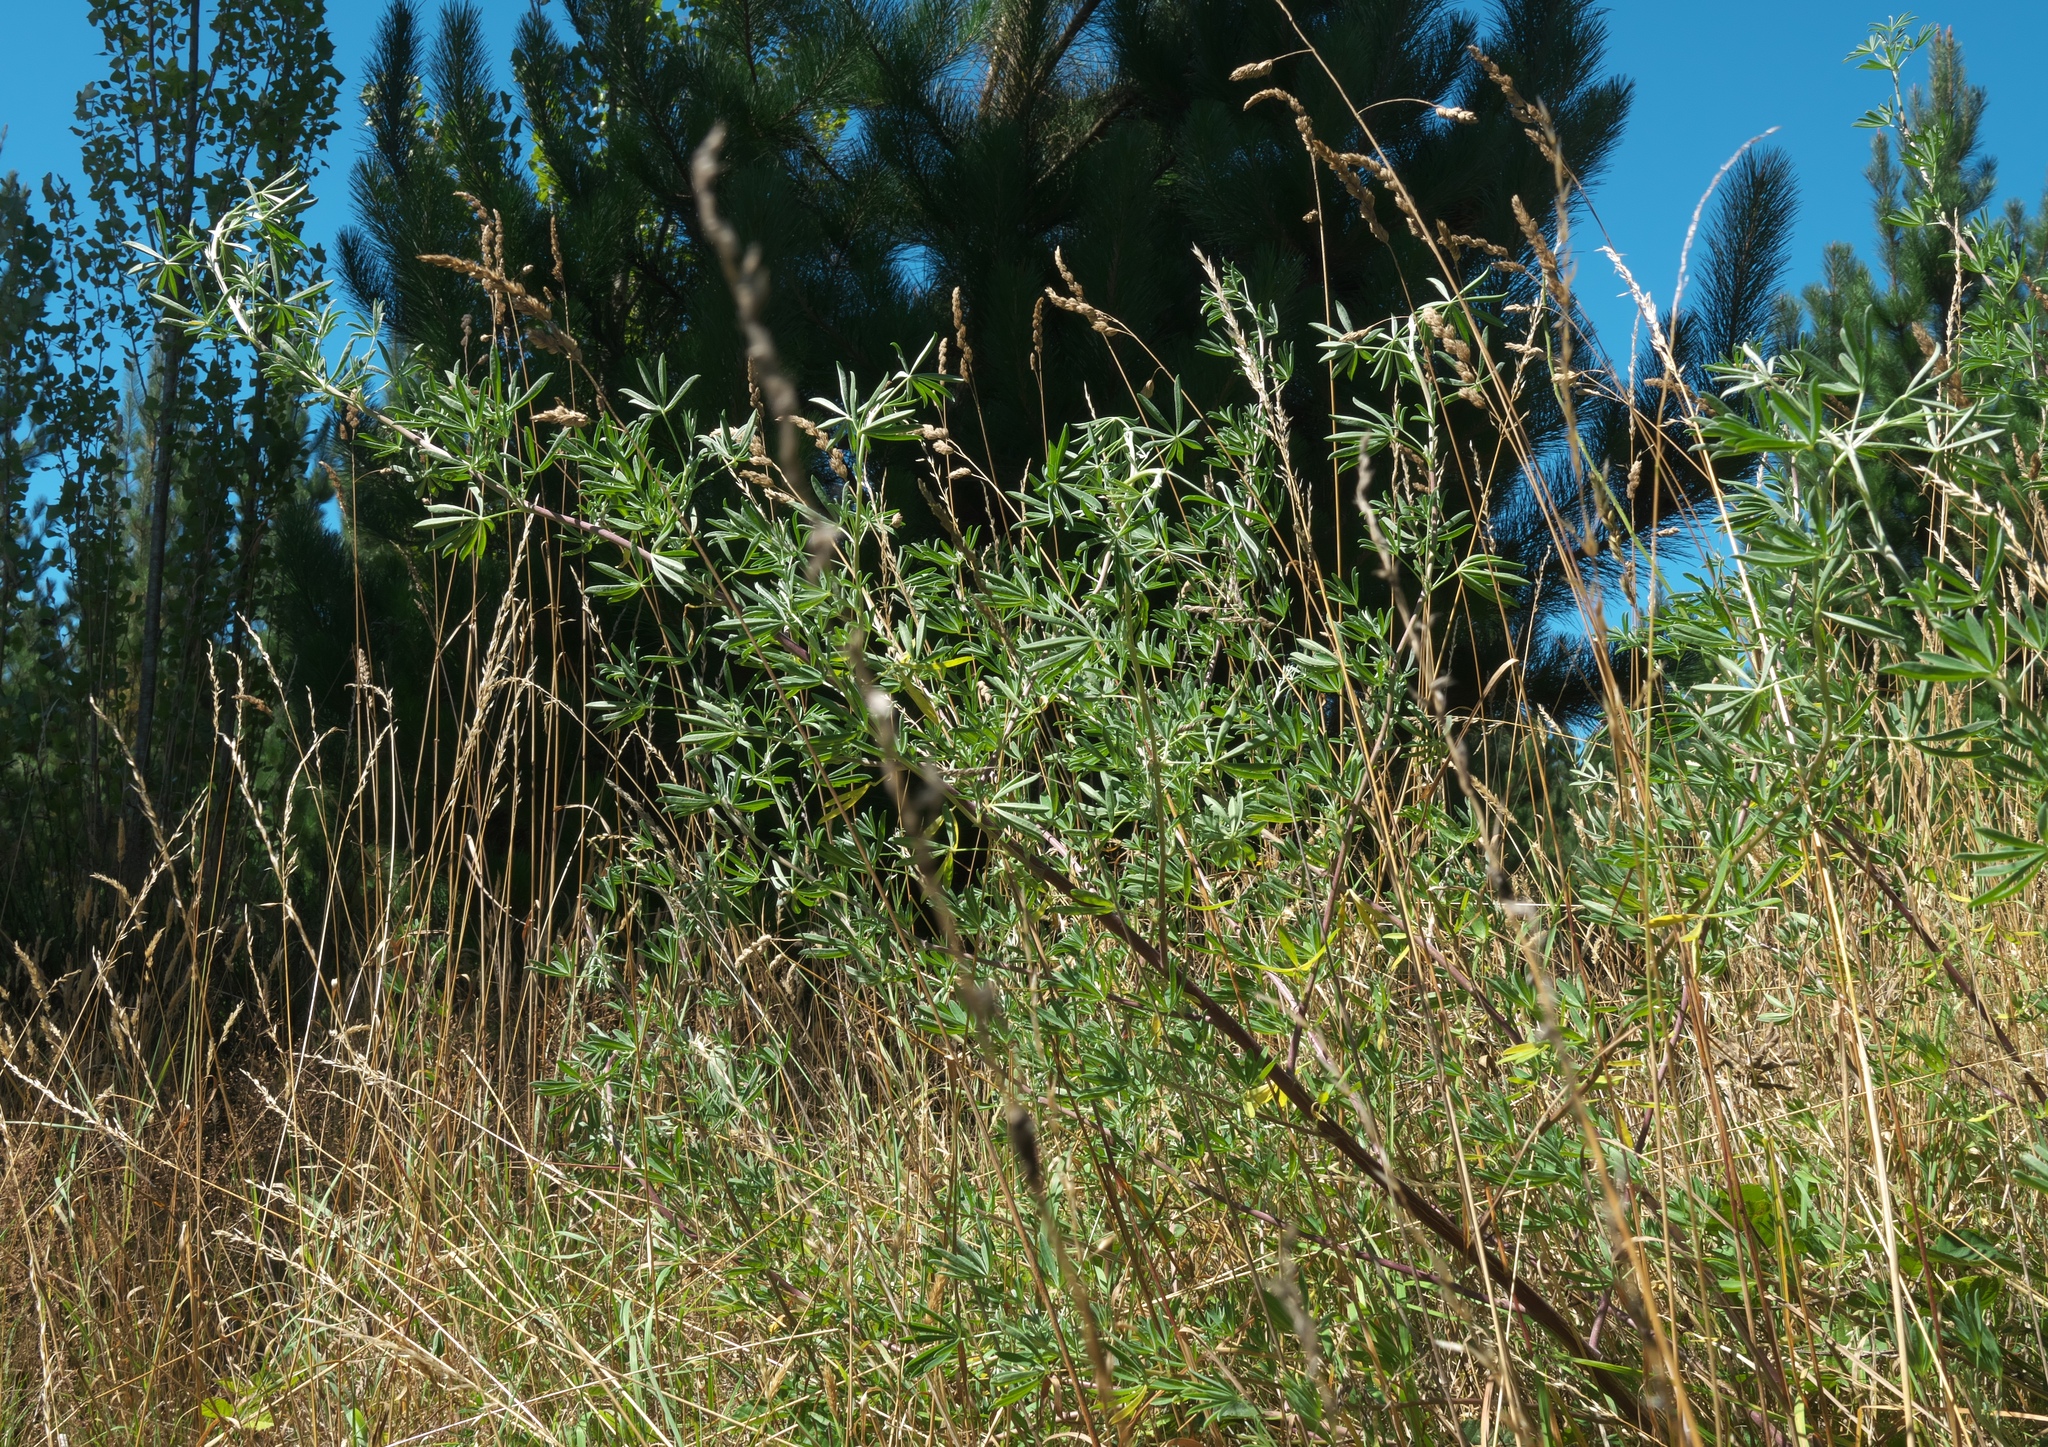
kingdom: Plantae
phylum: Tracheophyta
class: Magnoliopsida
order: Fabales
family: Fabaceae
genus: Lupinus
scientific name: Lupinus arboreus
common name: Yellow bush lupine
